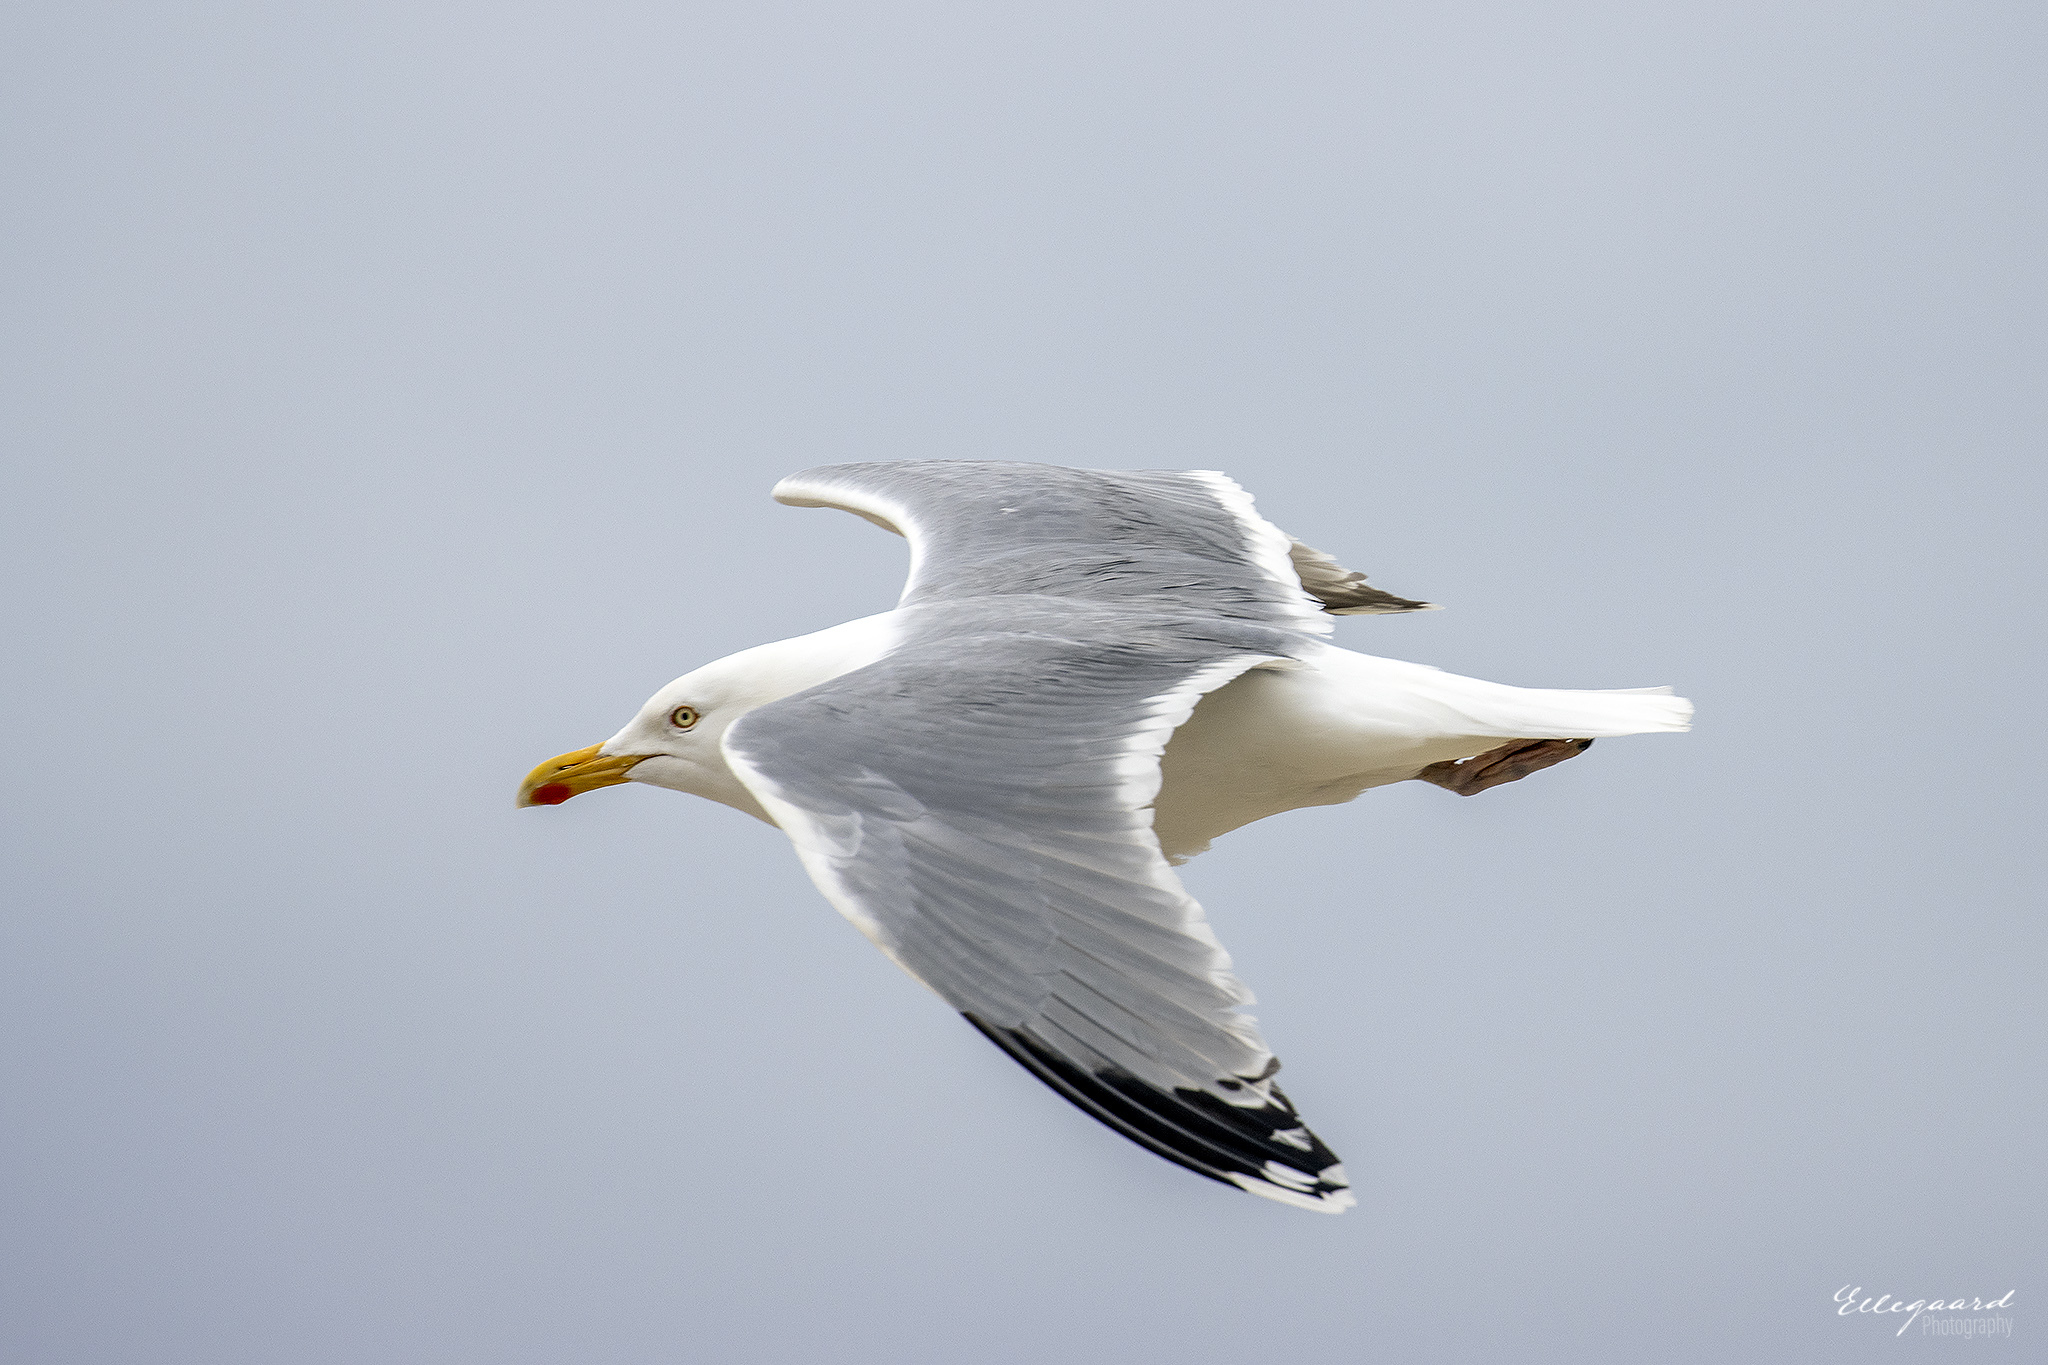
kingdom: Animalia
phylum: Chordata
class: Aves
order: Charadriiformes
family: Laridae
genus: Larus
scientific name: Larus argentatus
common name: Herring gull
